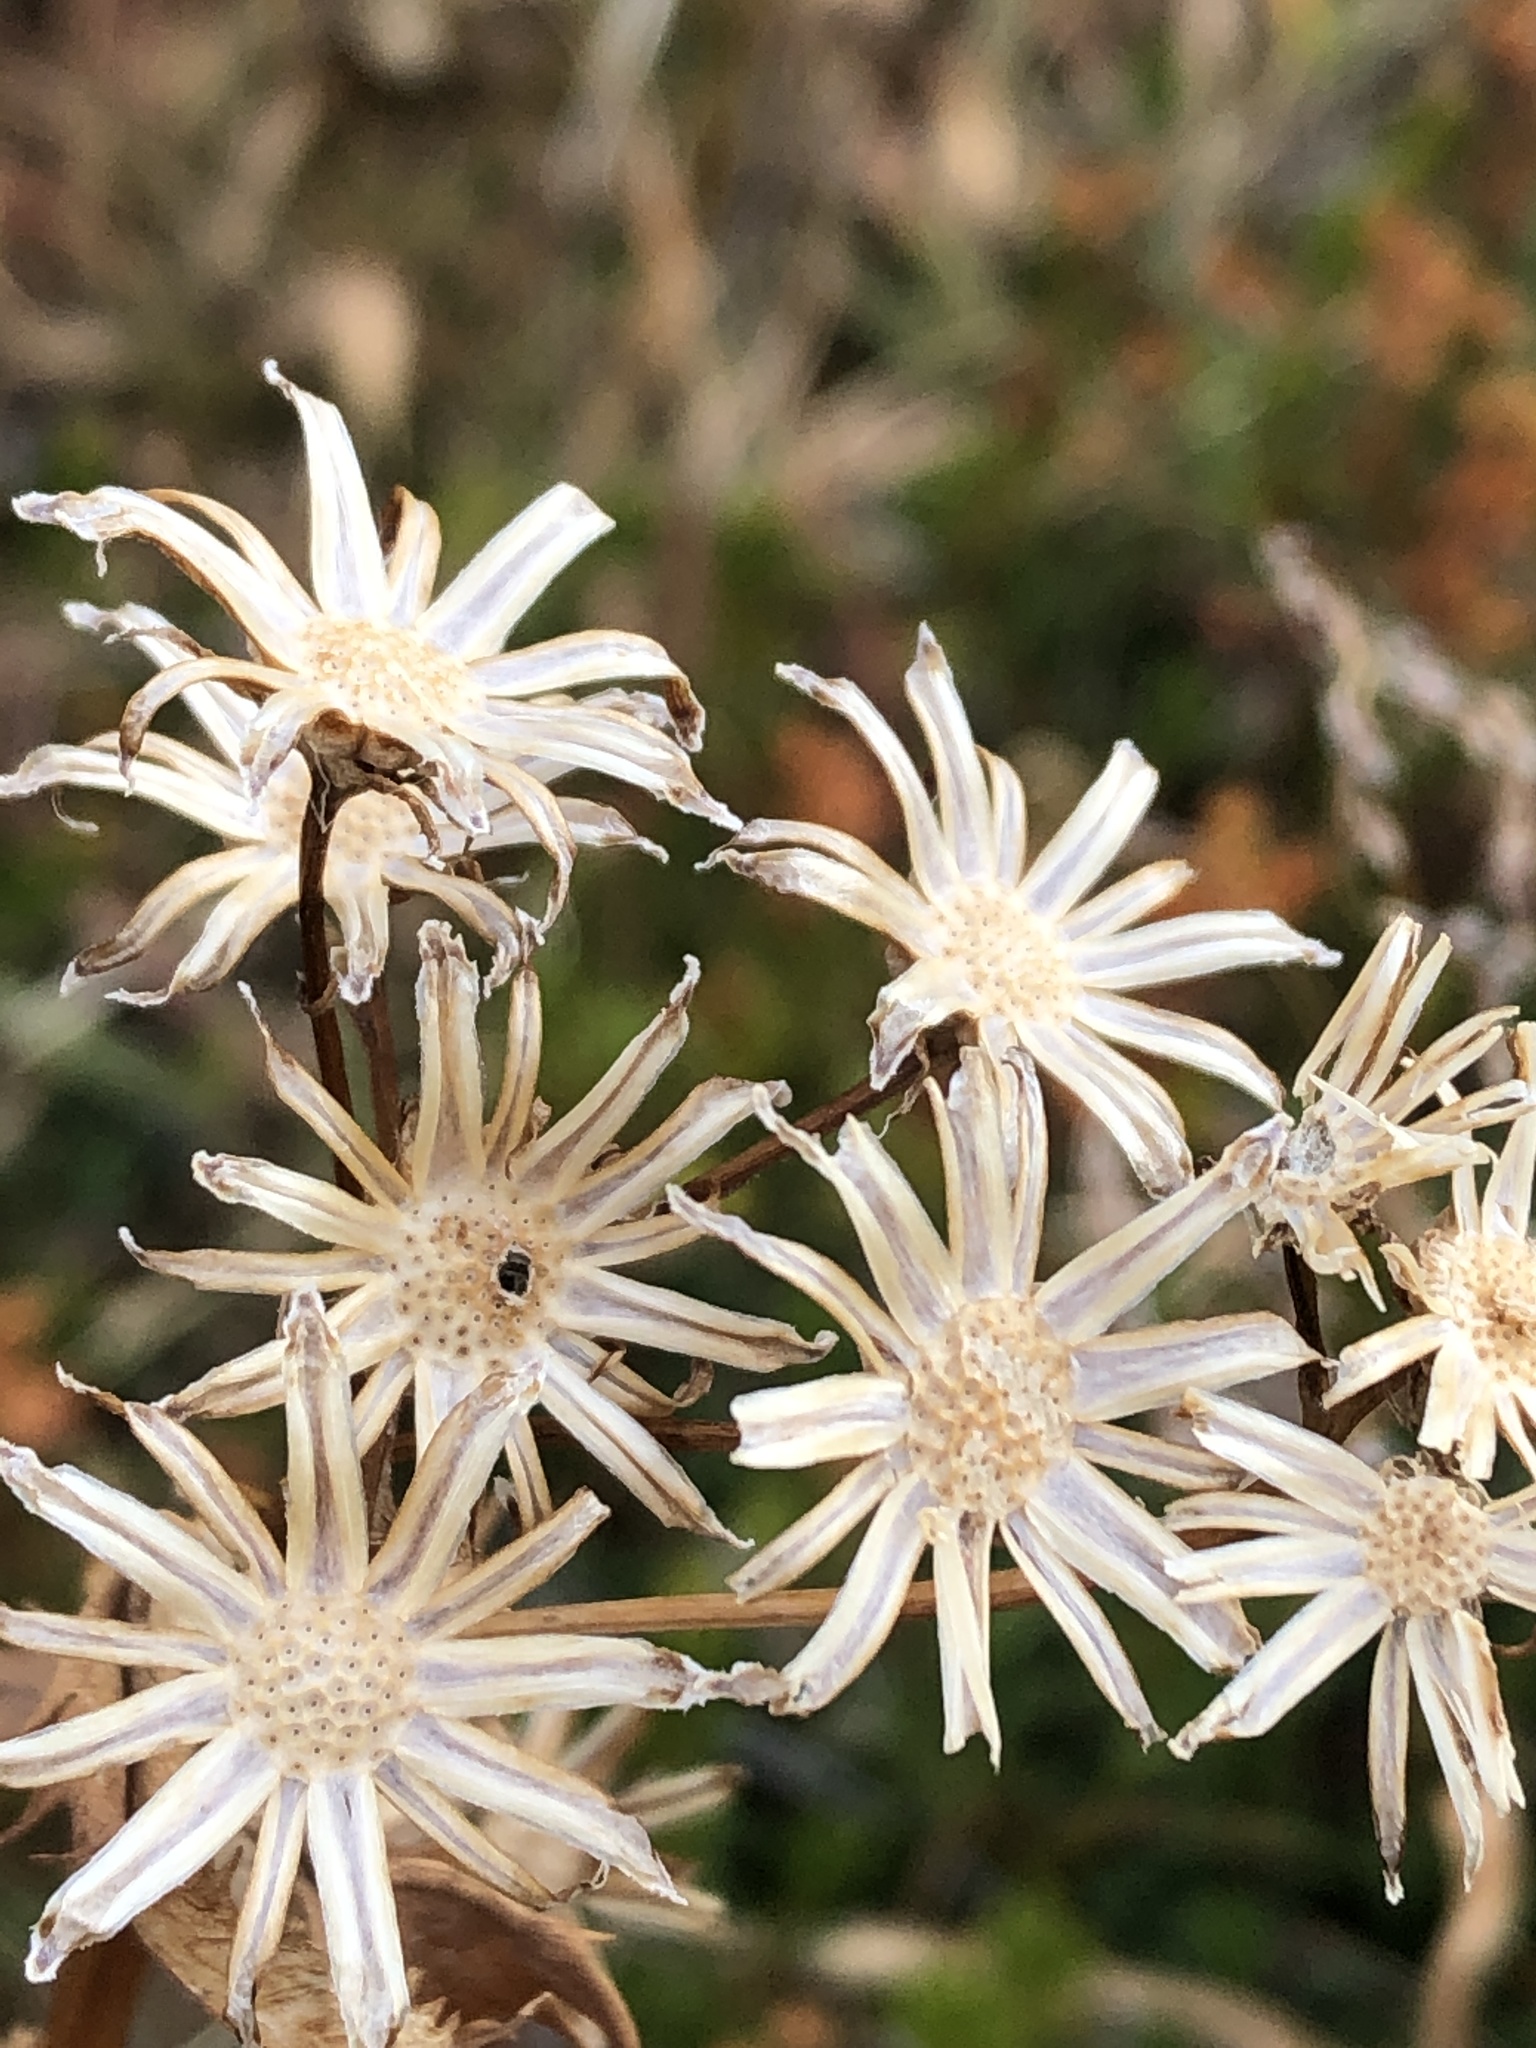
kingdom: Plantae
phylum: Tracheophyta
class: Magnoliopsida
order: Asterales
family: Asteraceae
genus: Senecio
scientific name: Senecio triangularis
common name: Arrowleaf butterweed
